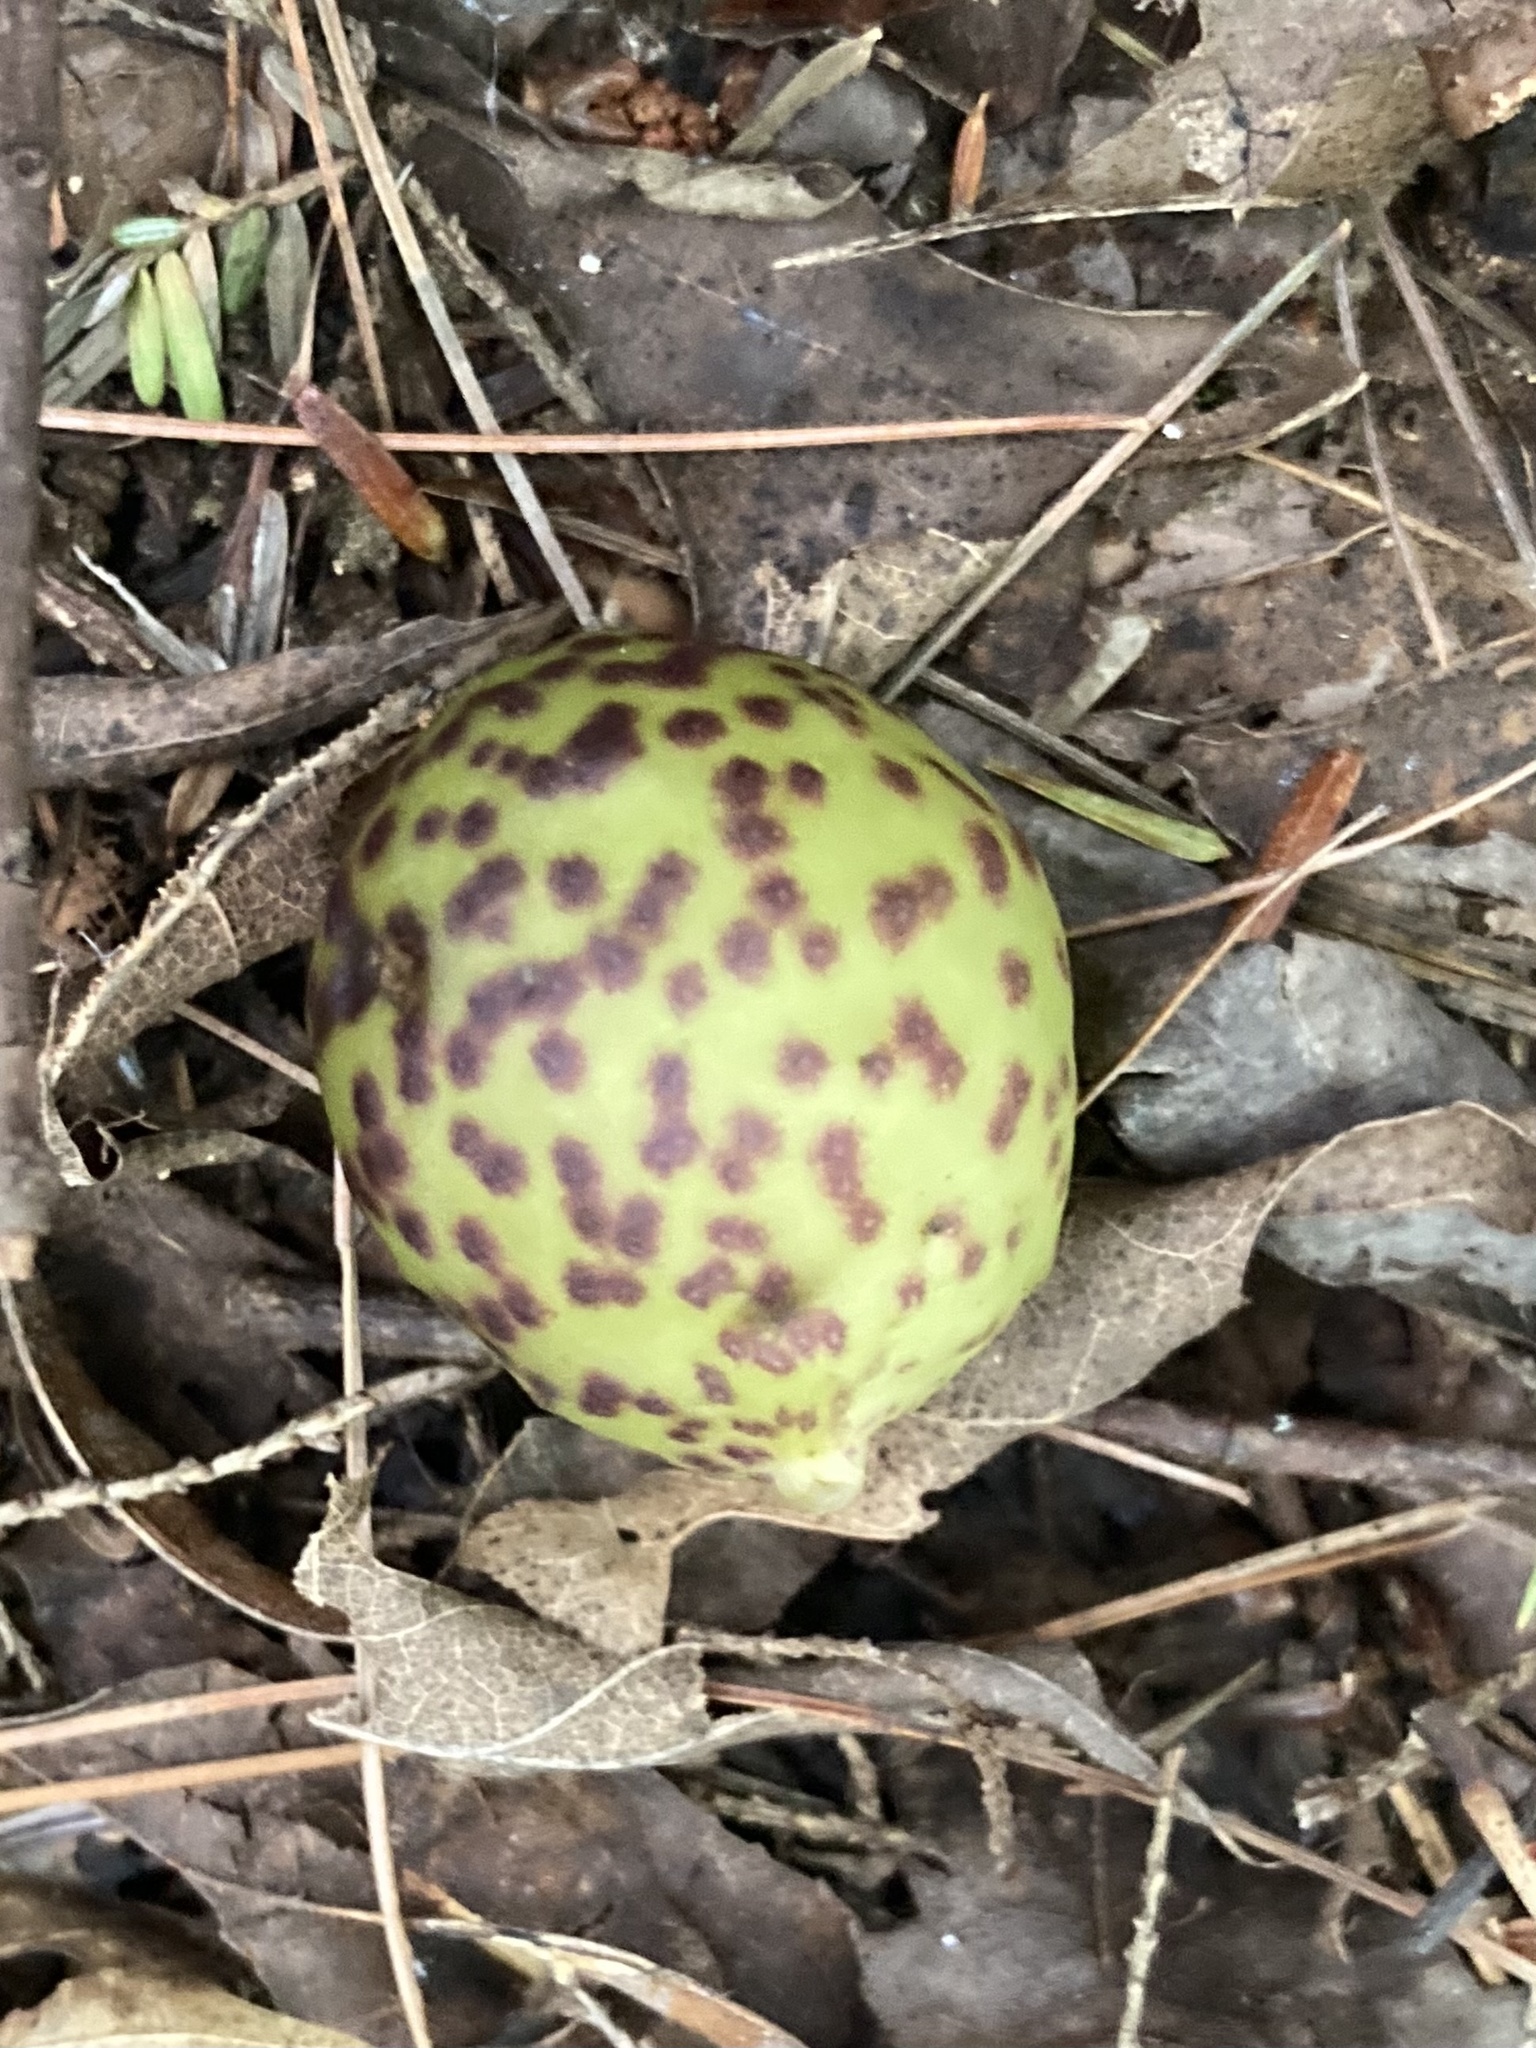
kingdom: Animalia
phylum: Arthropoda
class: Insecta
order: Hymenoptera
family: Cynipidae
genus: Amphibolips
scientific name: Amphibolips
